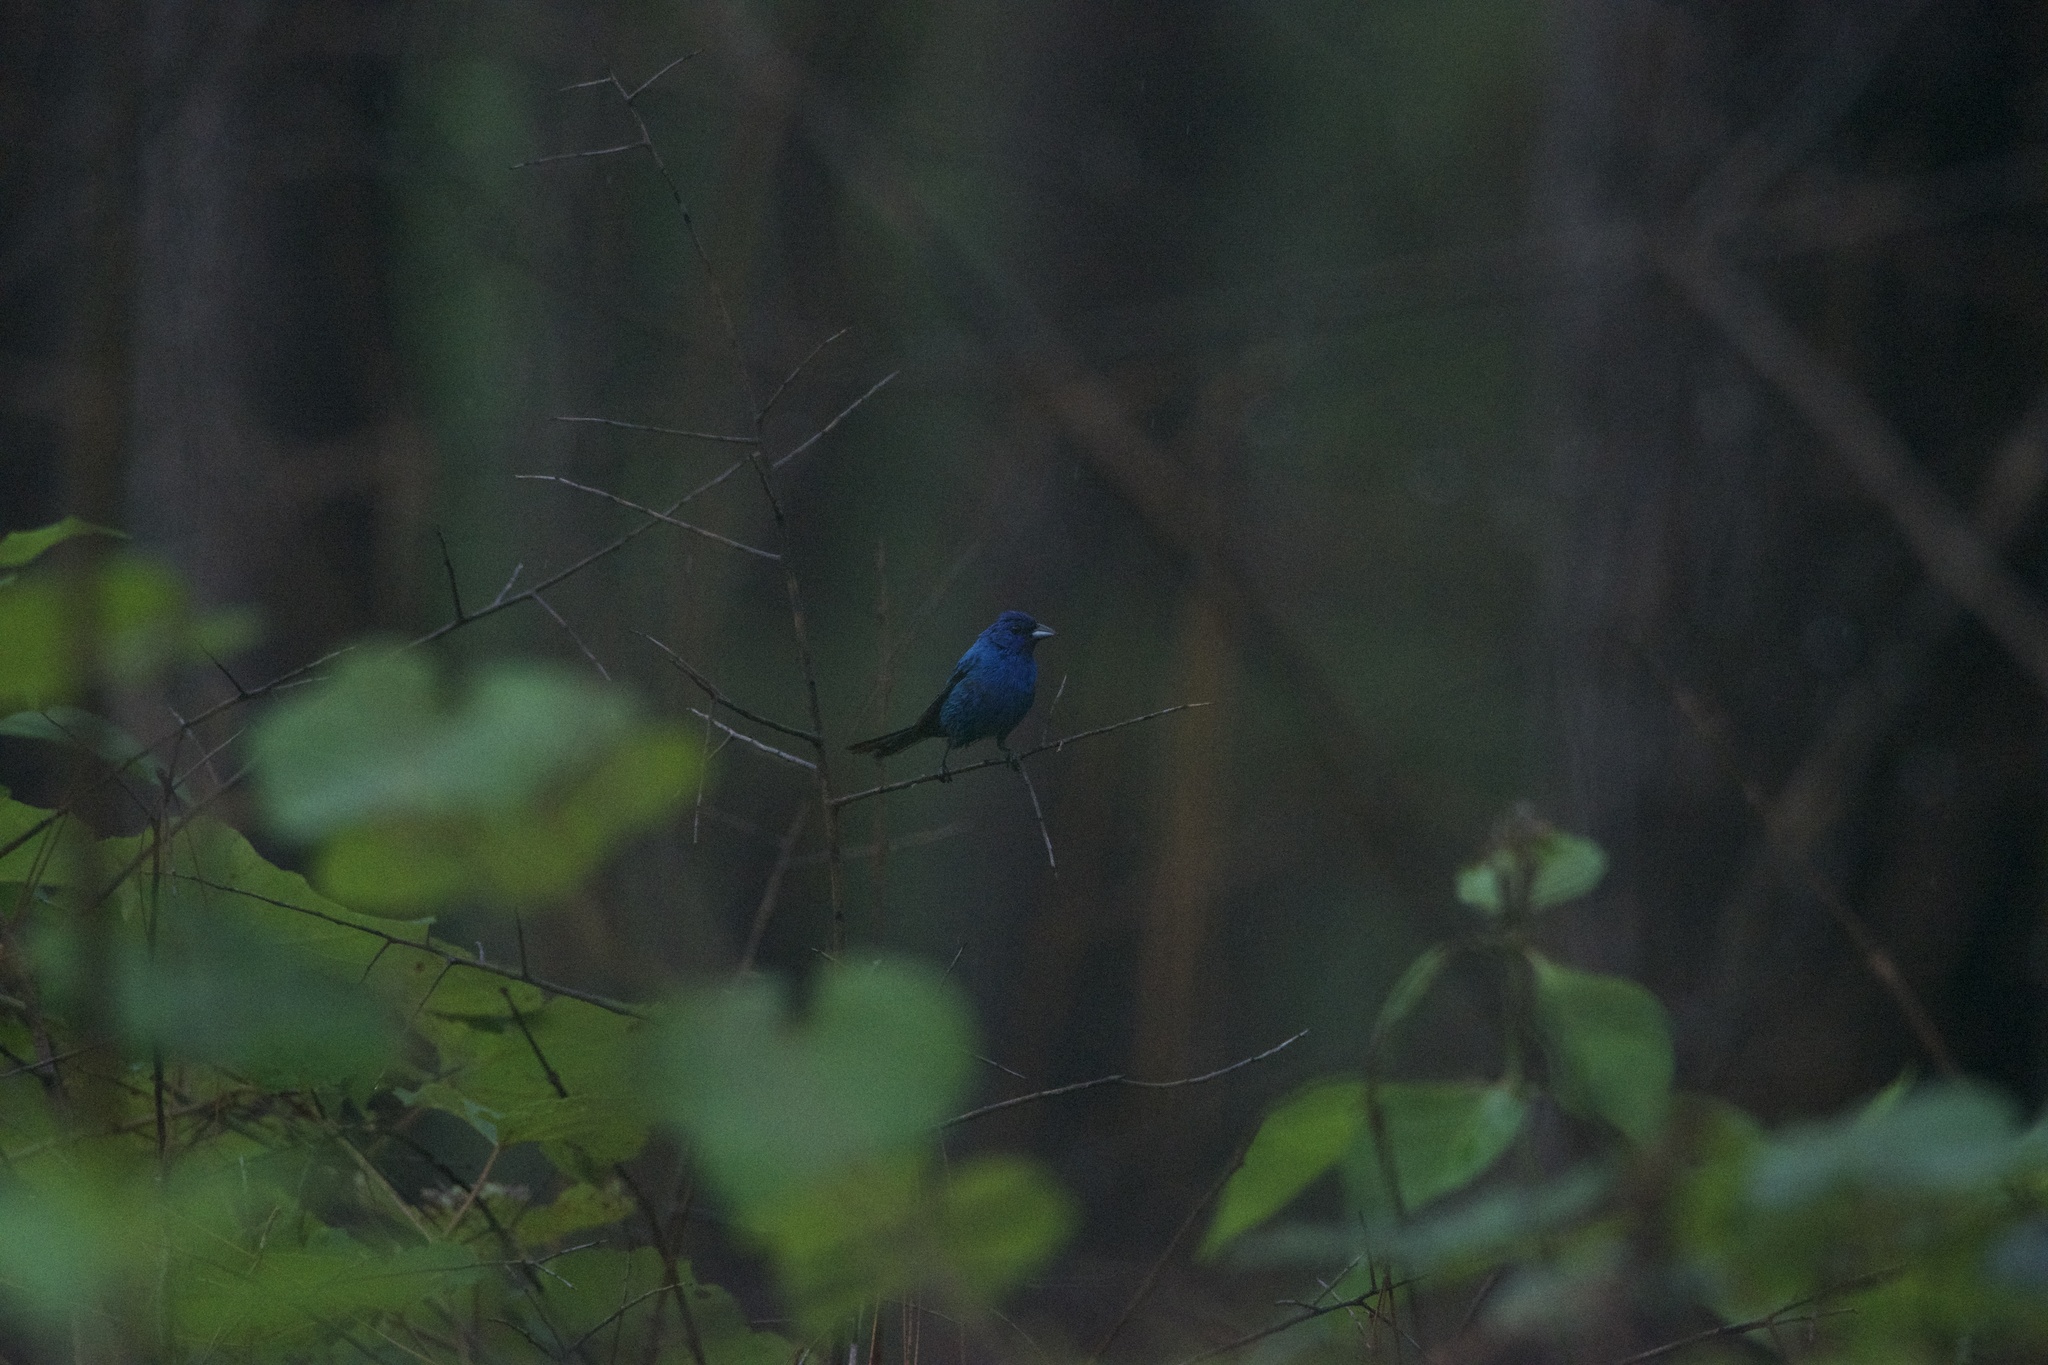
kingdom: Animalia
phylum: Chordata
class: Aves
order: Passeriformes
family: Cardinalidae
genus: Passerina
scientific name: Passerina cyanea
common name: Indigo bunting
